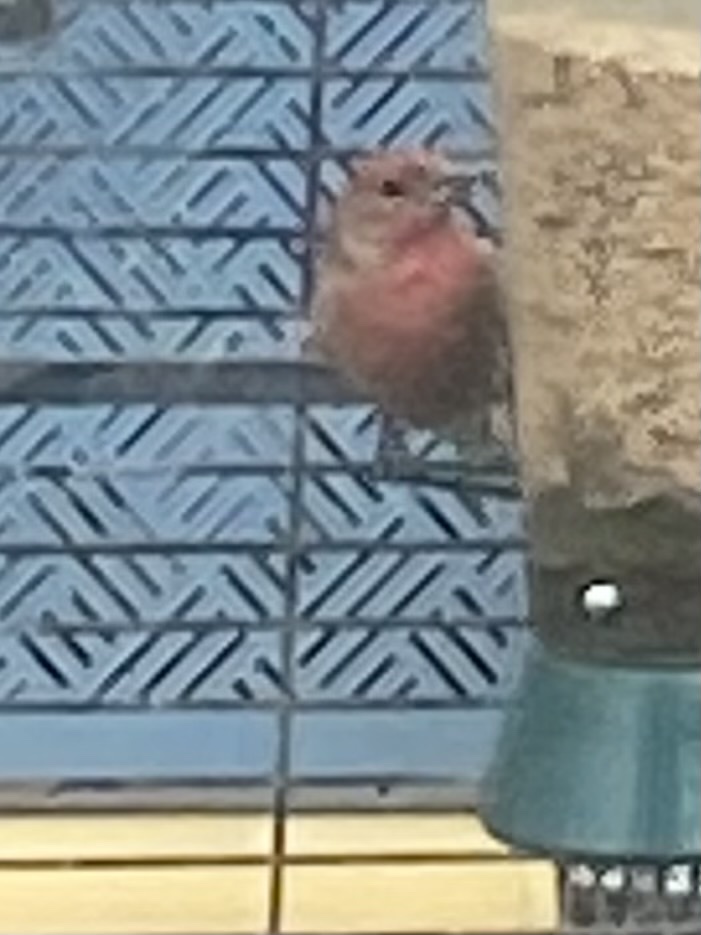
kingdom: Animalia
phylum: Chordata
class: Aves
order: Passeriformes
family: Fringillidae
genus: Haemorhous
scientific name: Haemorhous mexicanus
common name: House finch
